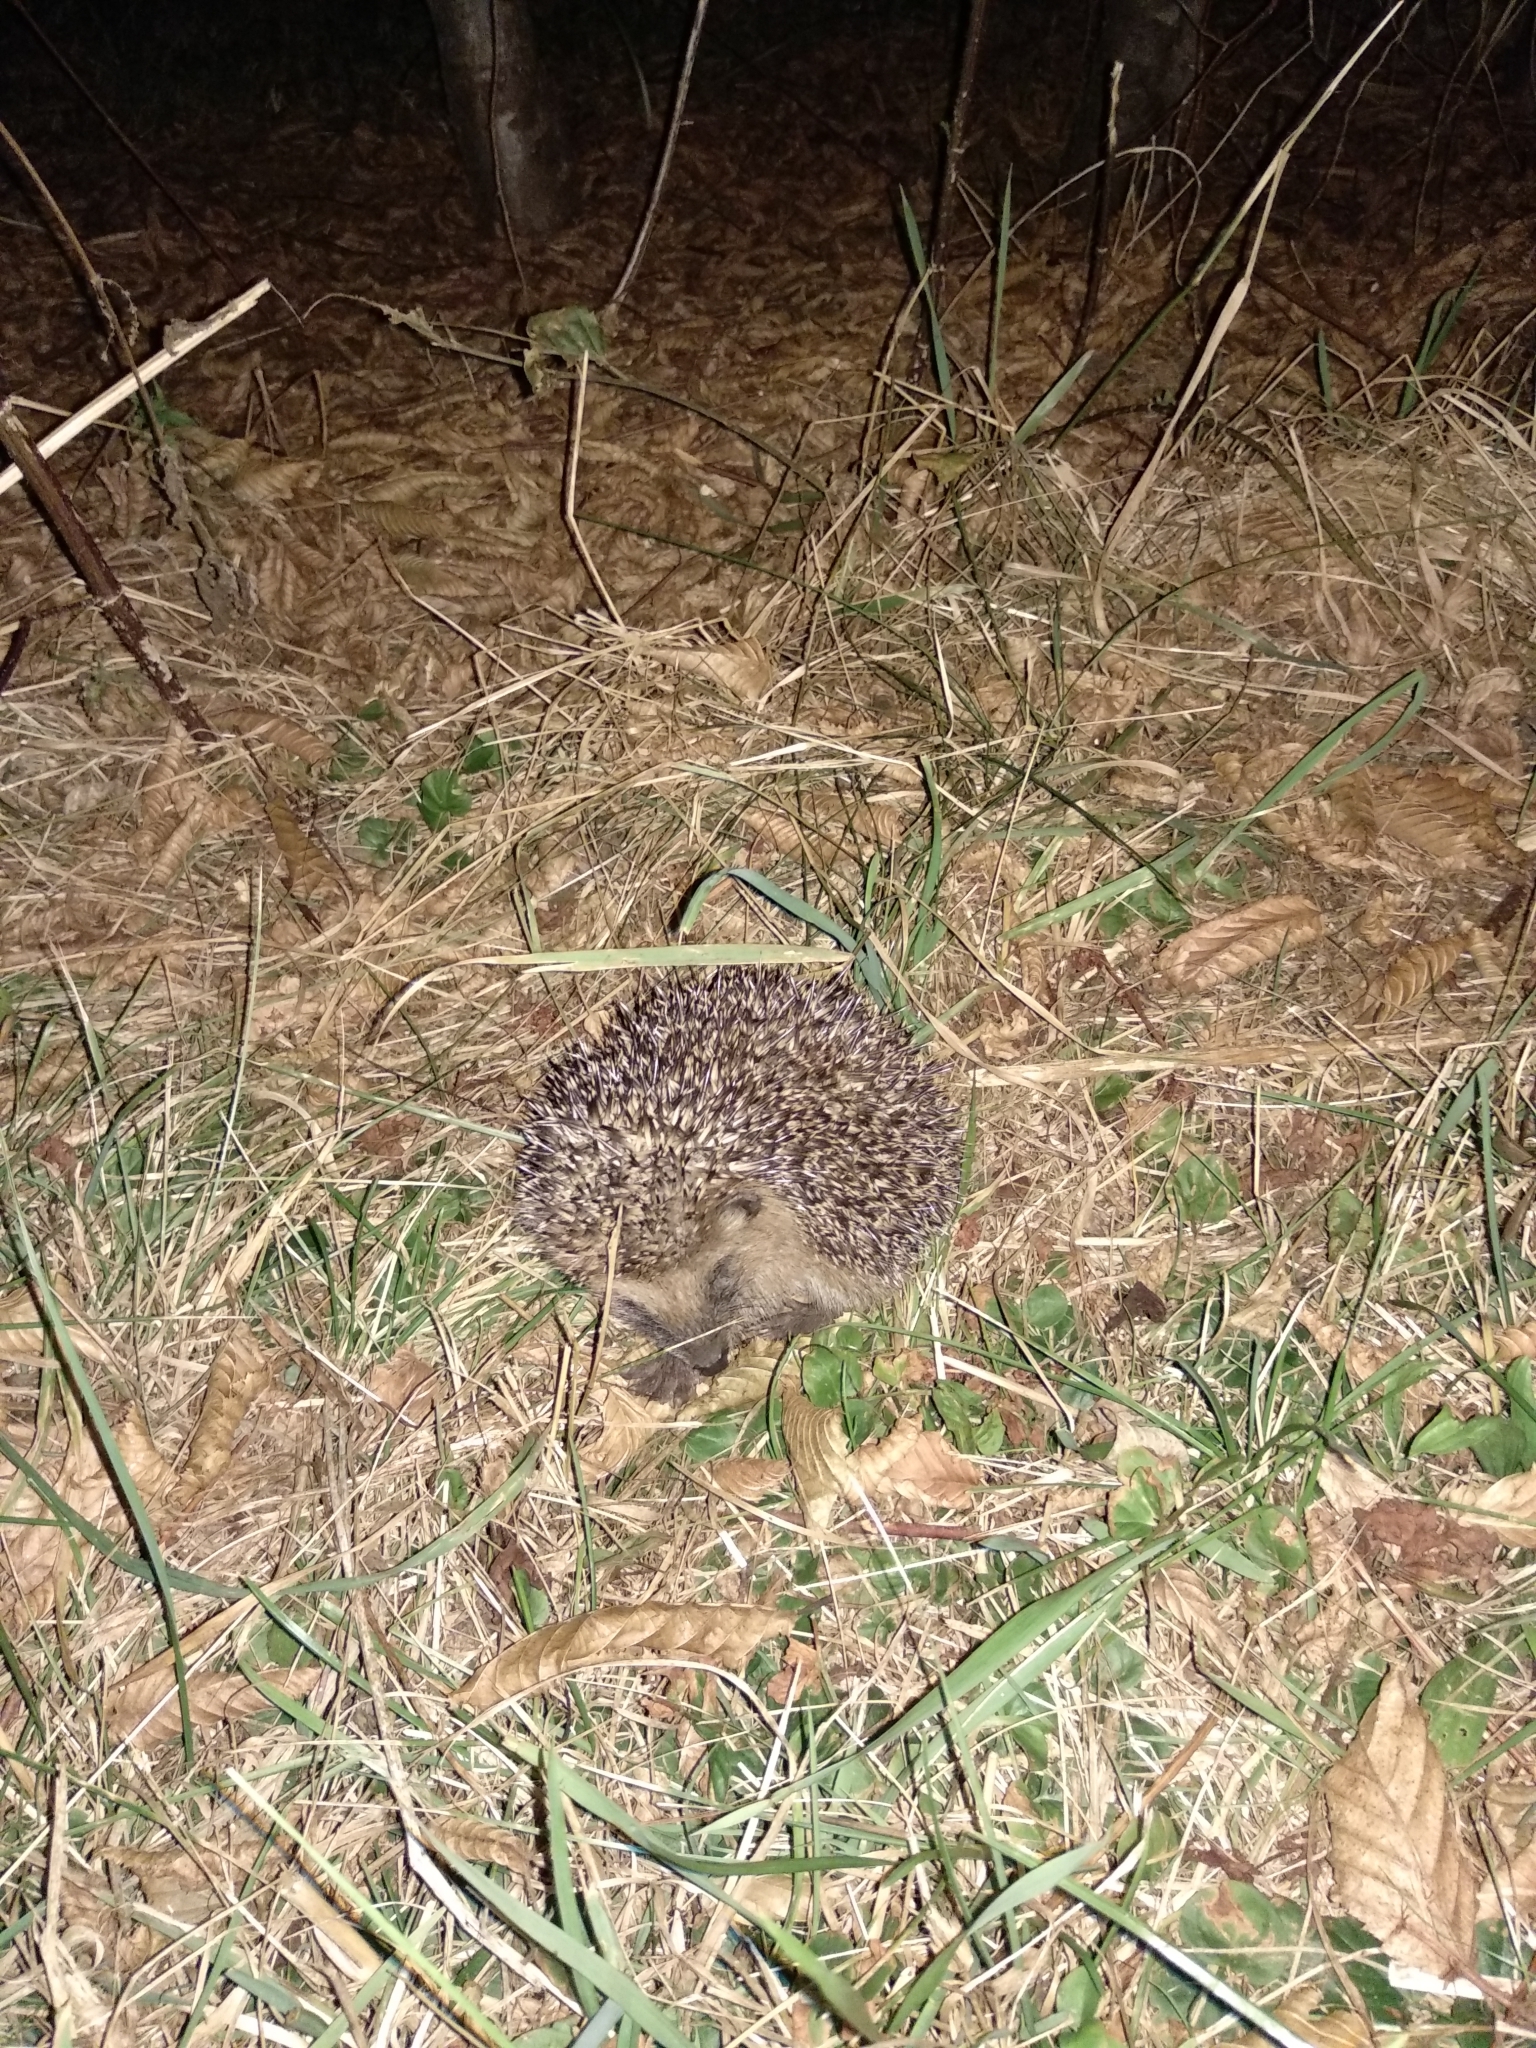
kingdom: Animalia
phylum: Chordata
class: Mammalia
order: Erinaceomorpha
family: Erinaceidae
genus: Erinaceus
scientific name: Erinaceus europaeus
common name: West european hedgehog
